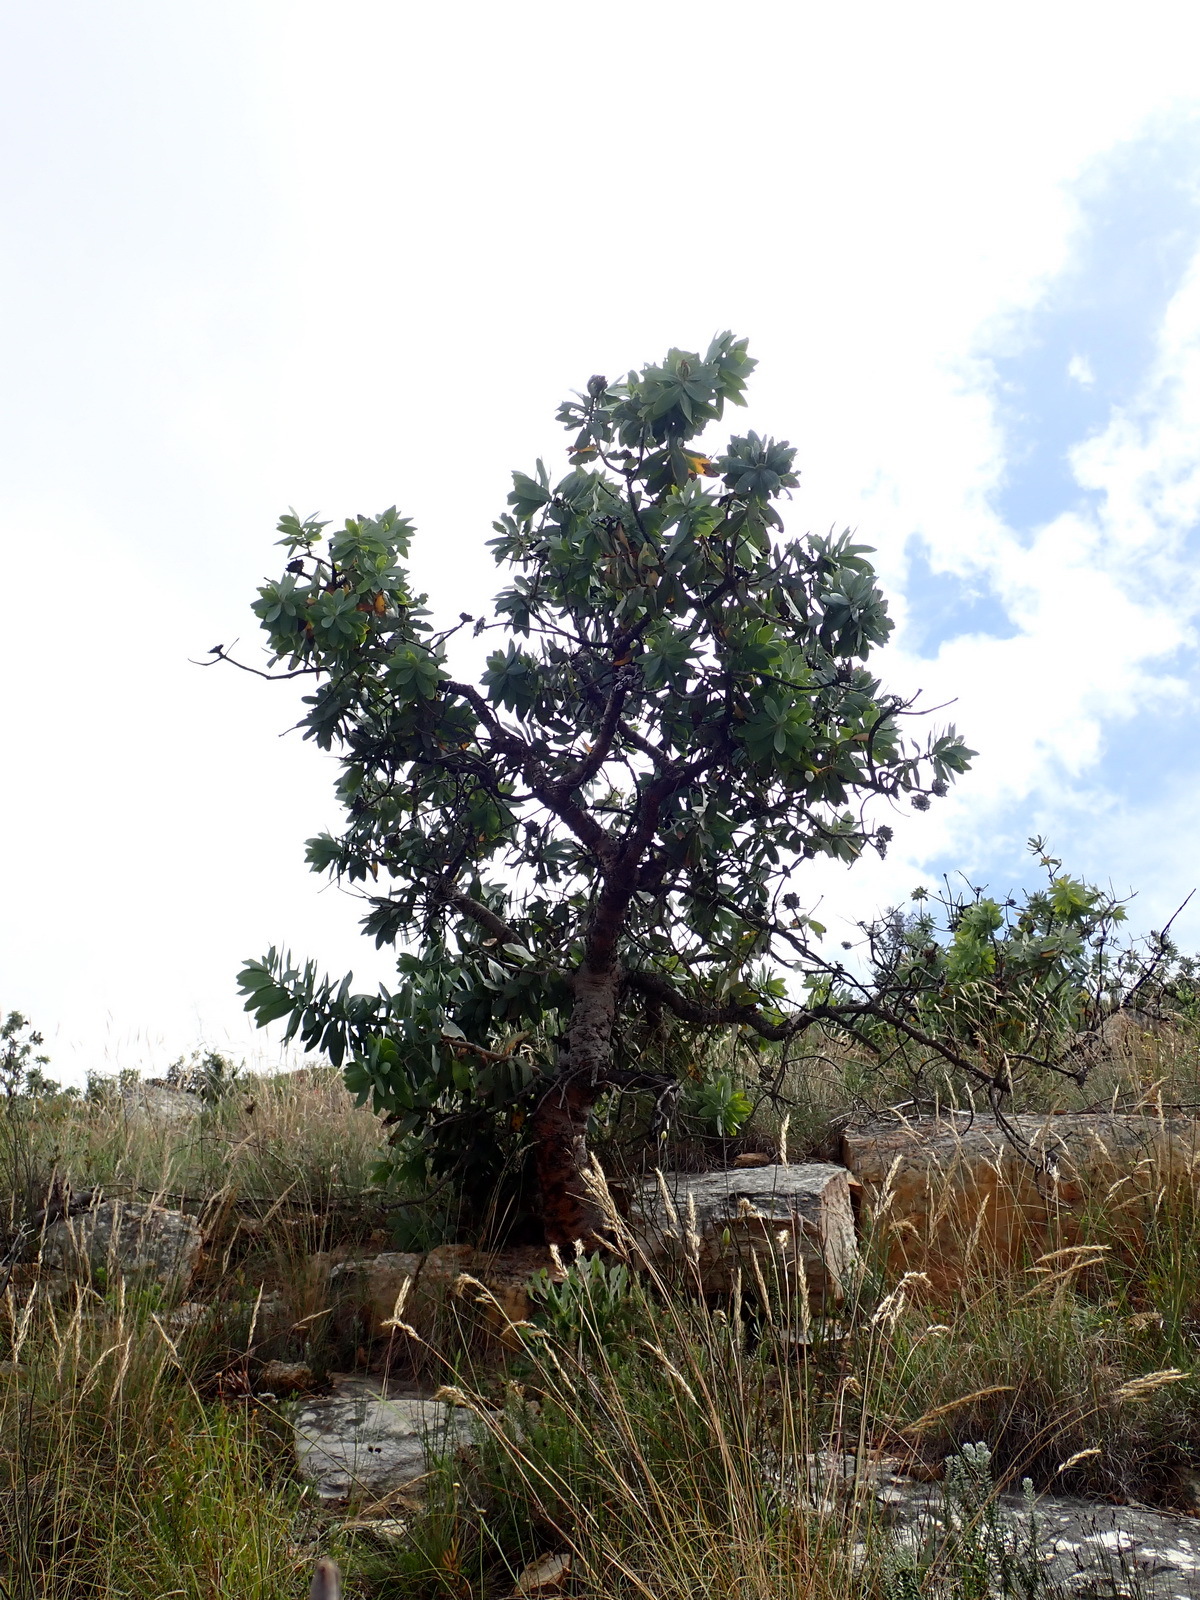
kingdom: Plantae
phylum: Tracheophyta
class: Magnoliopsida
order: Proteales
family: Proteaceae
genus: Protea
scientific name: Protea nitida
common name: Tree protea
